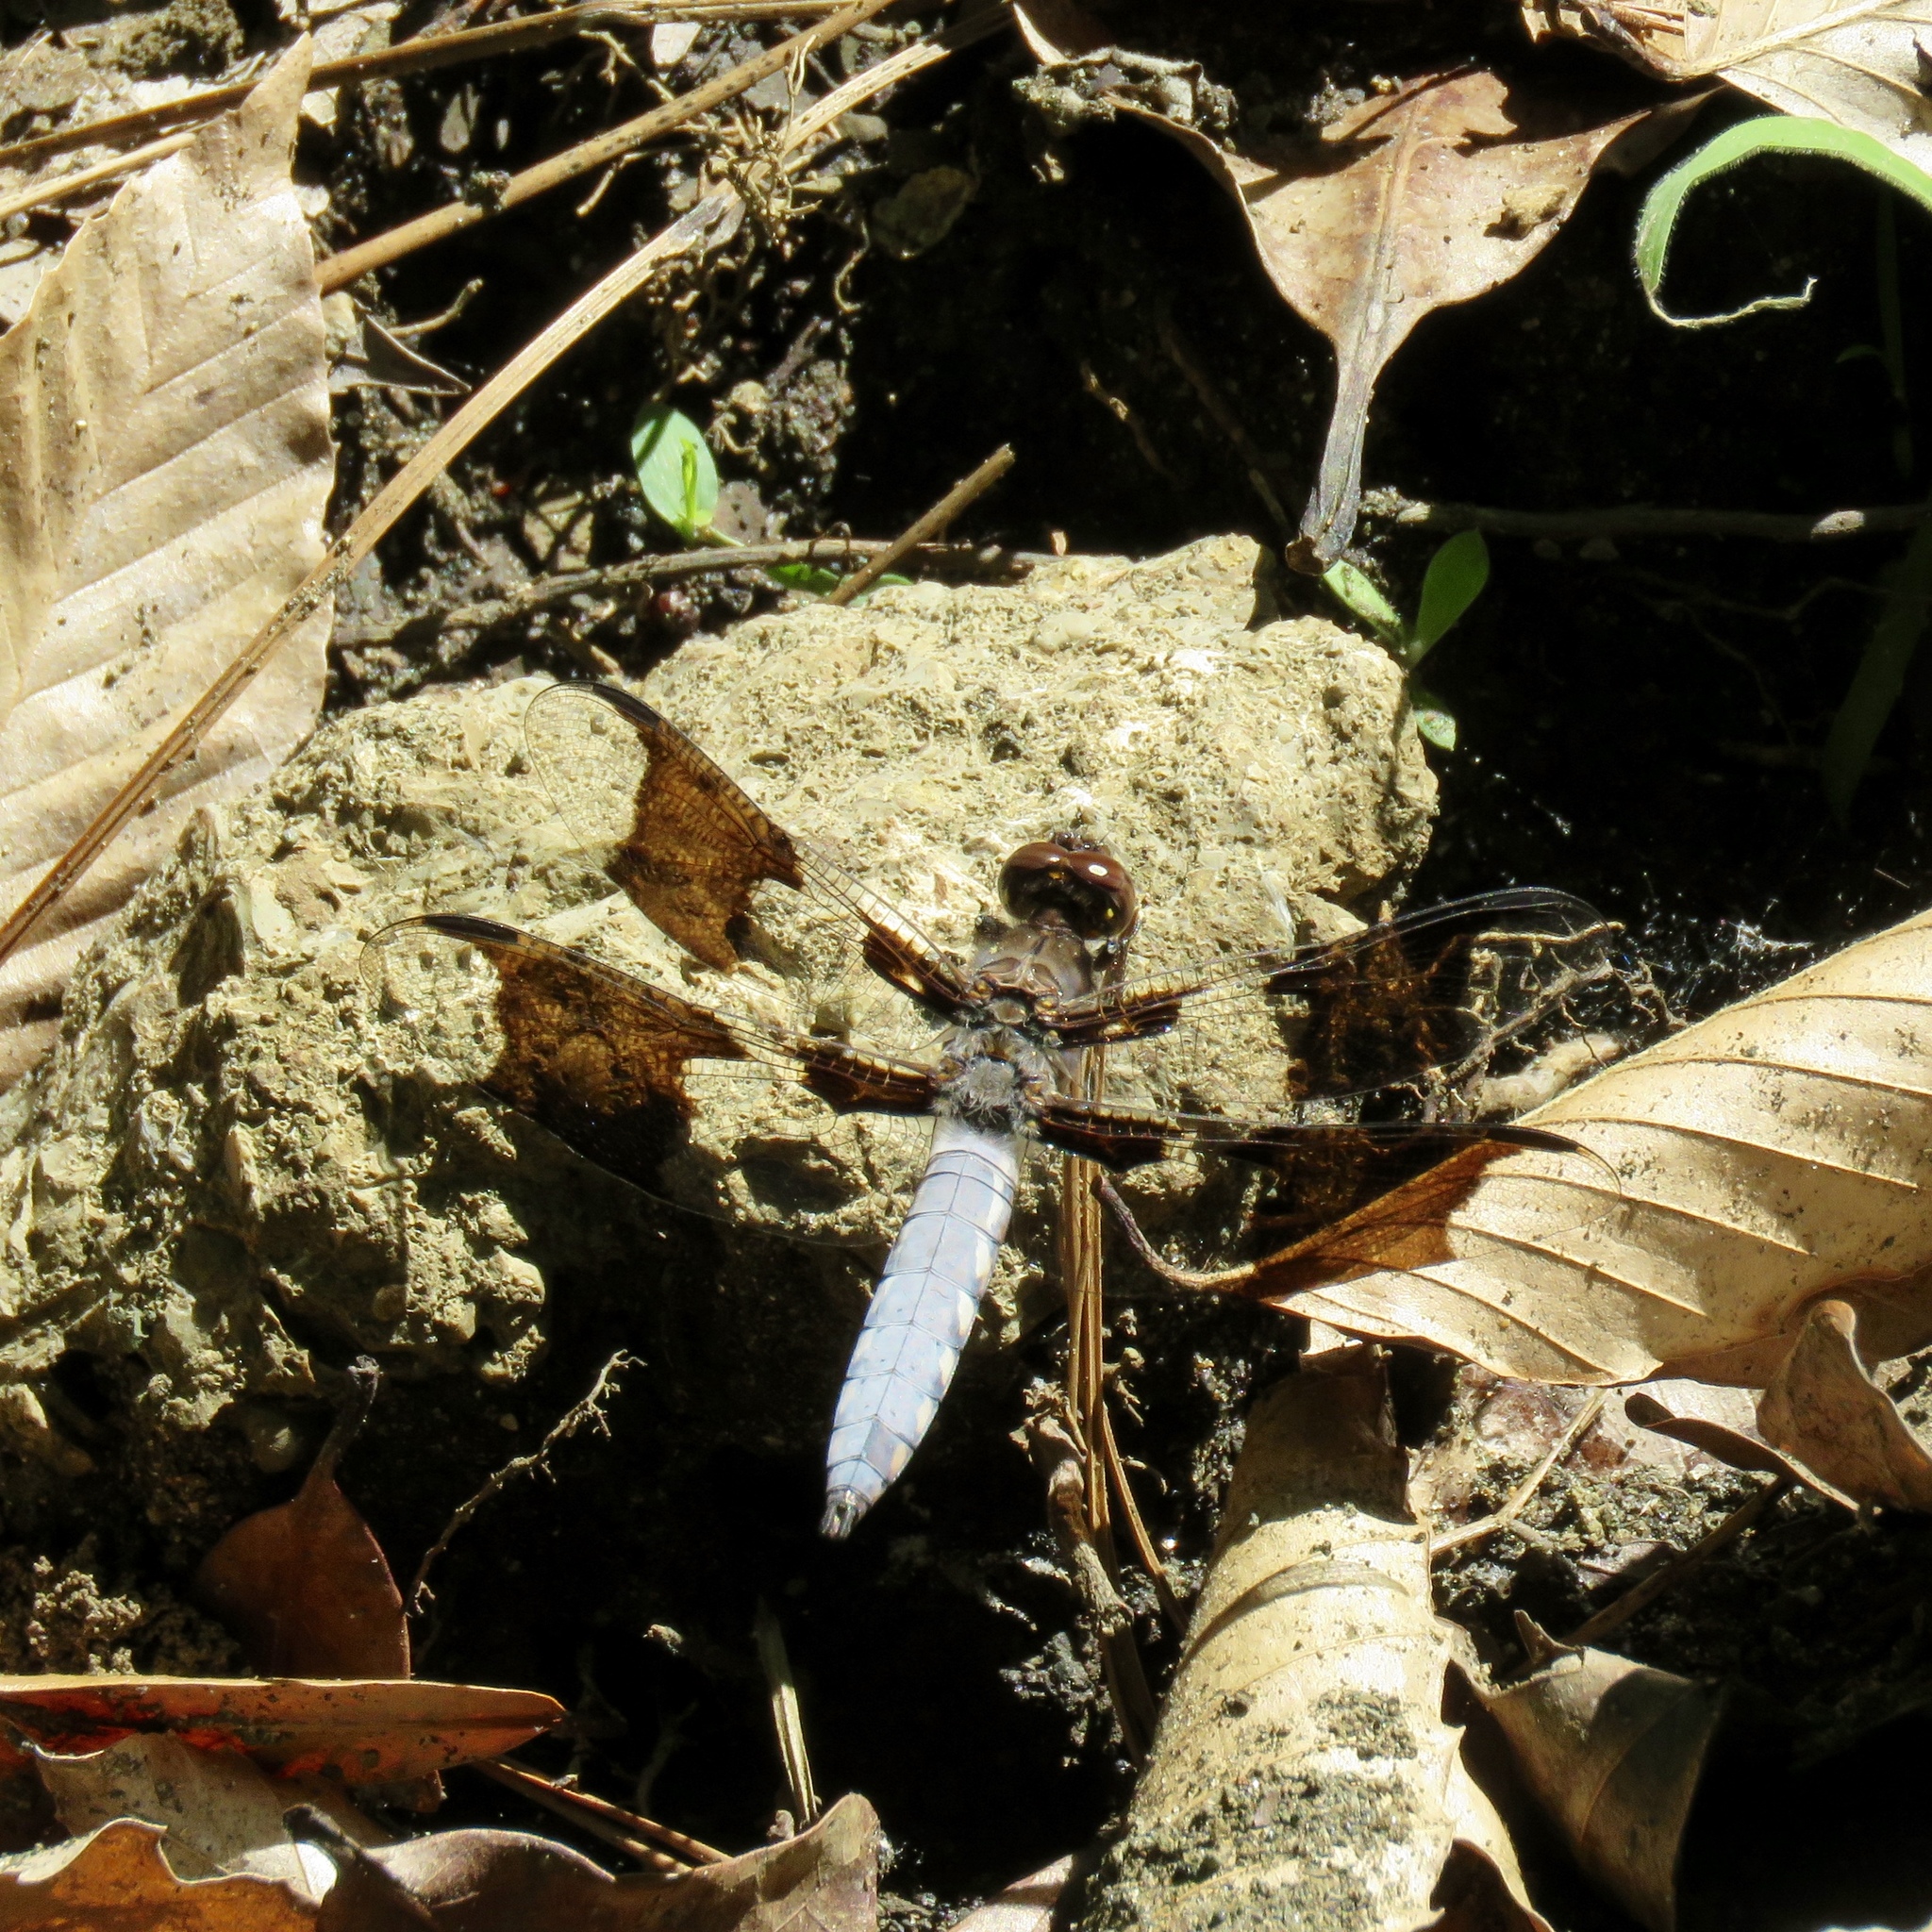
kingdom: Animalia
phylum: Arthropoda
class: Insecta
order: Odonata
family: Libellulidae
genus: Plathemis
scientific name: Plathemis lydia
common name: Common whitetail
